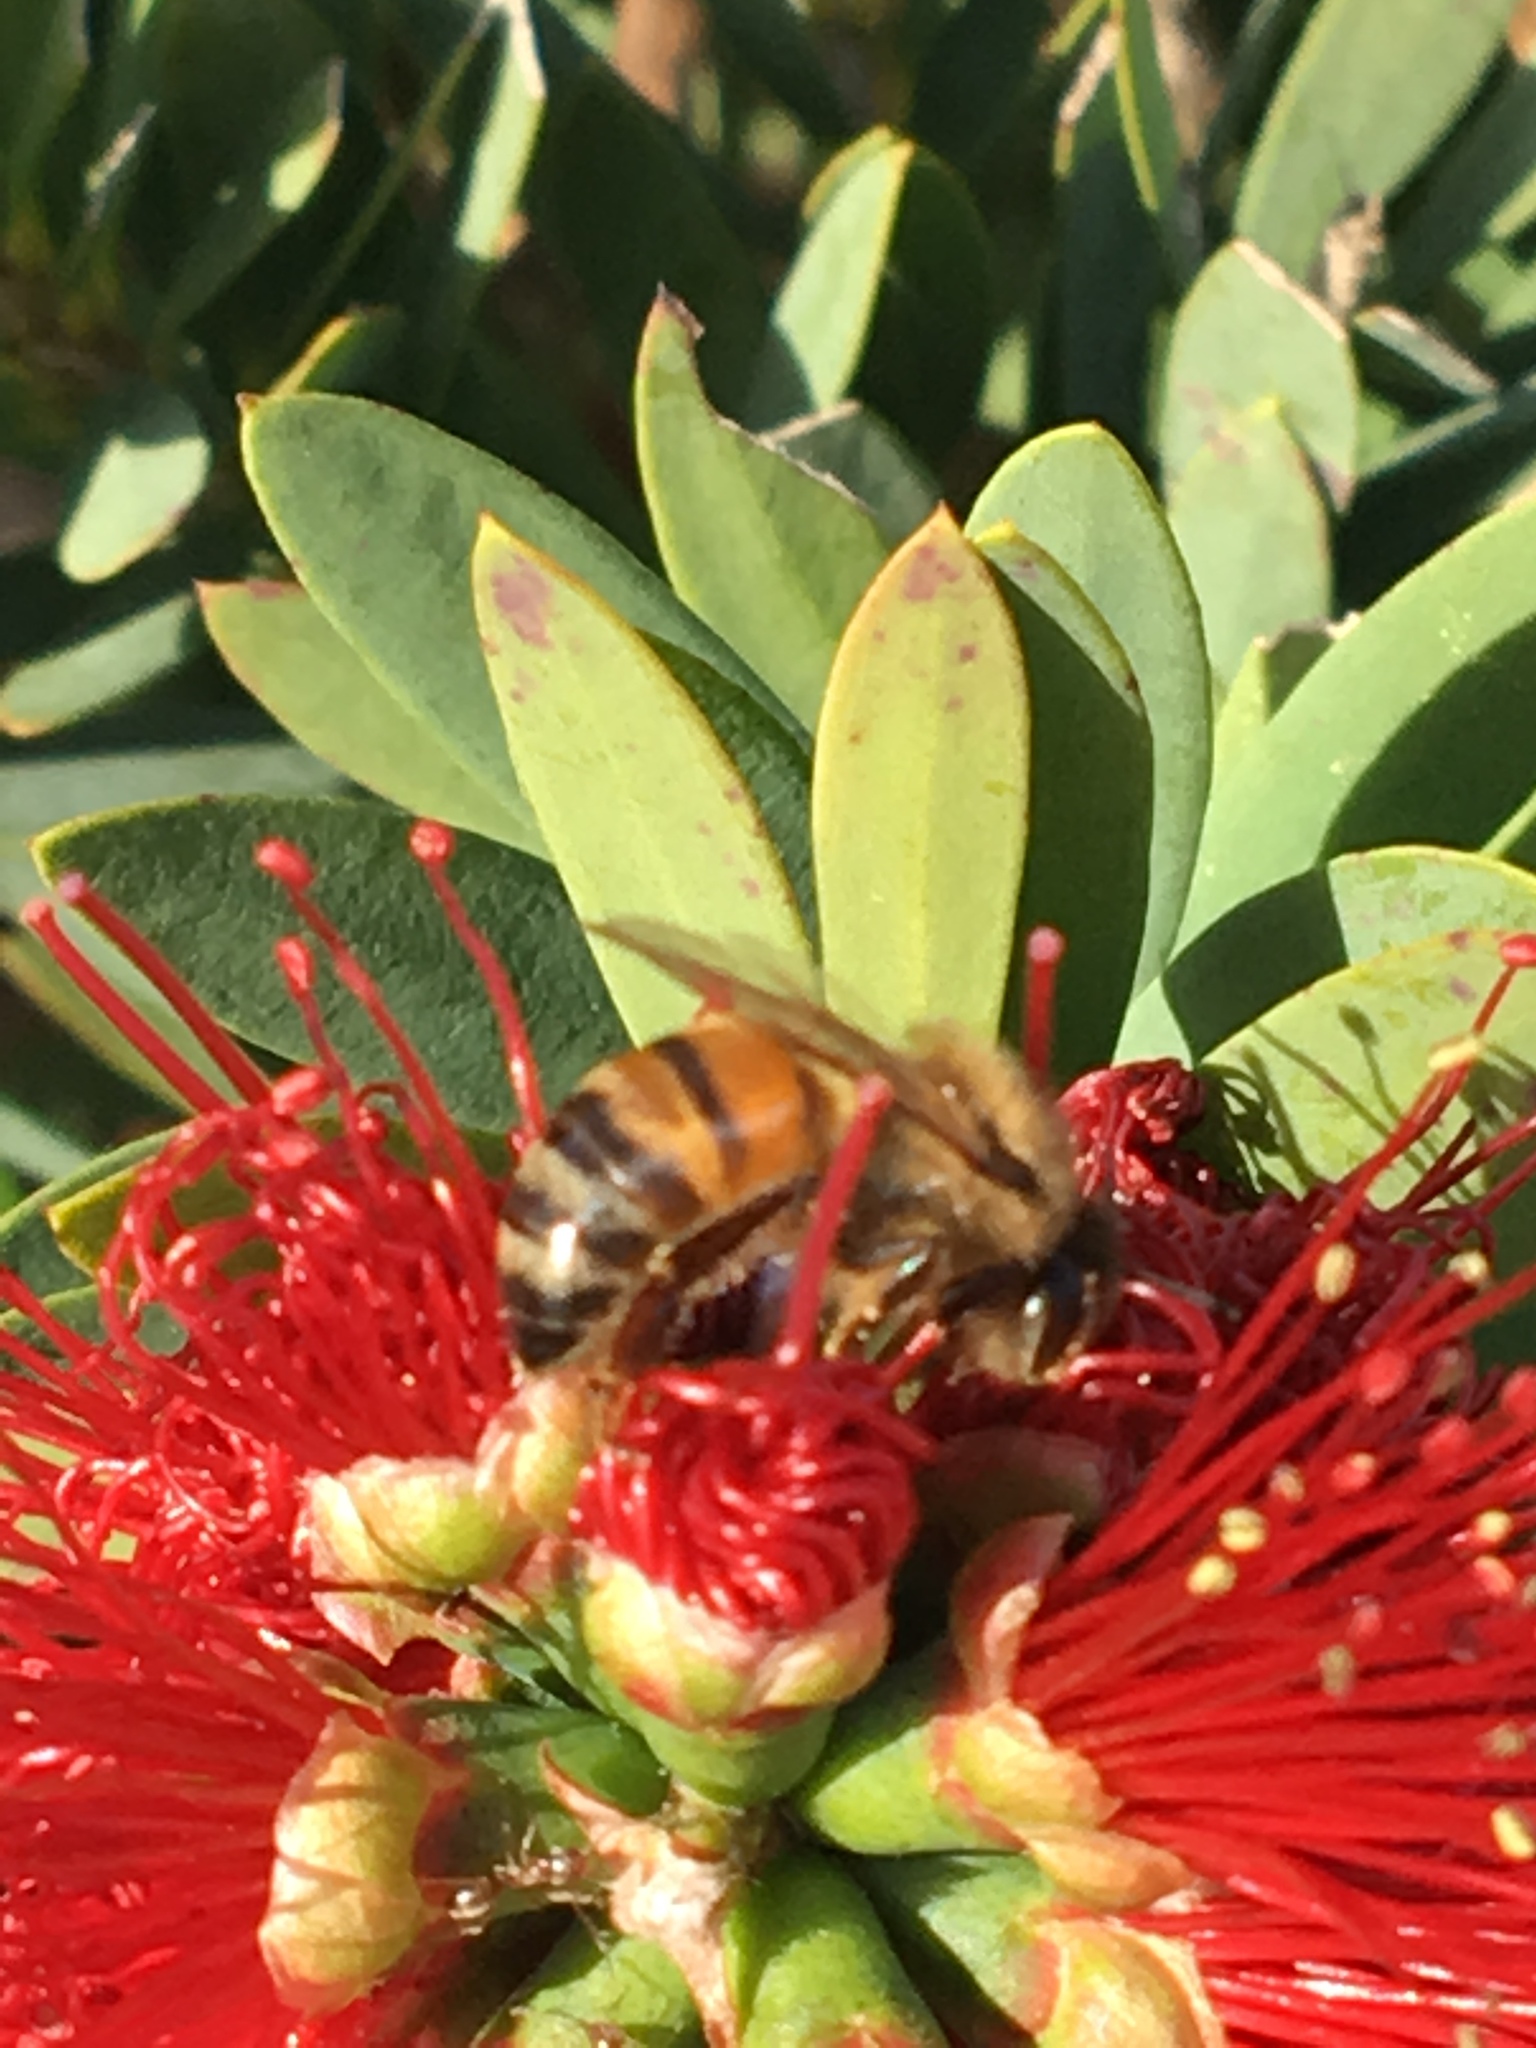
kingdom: Animalia
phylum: Arthropoda
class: Insecta
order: Hymenoptera
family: Apidae
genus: Apis
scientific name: Apis mellifera
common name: Honey bee
